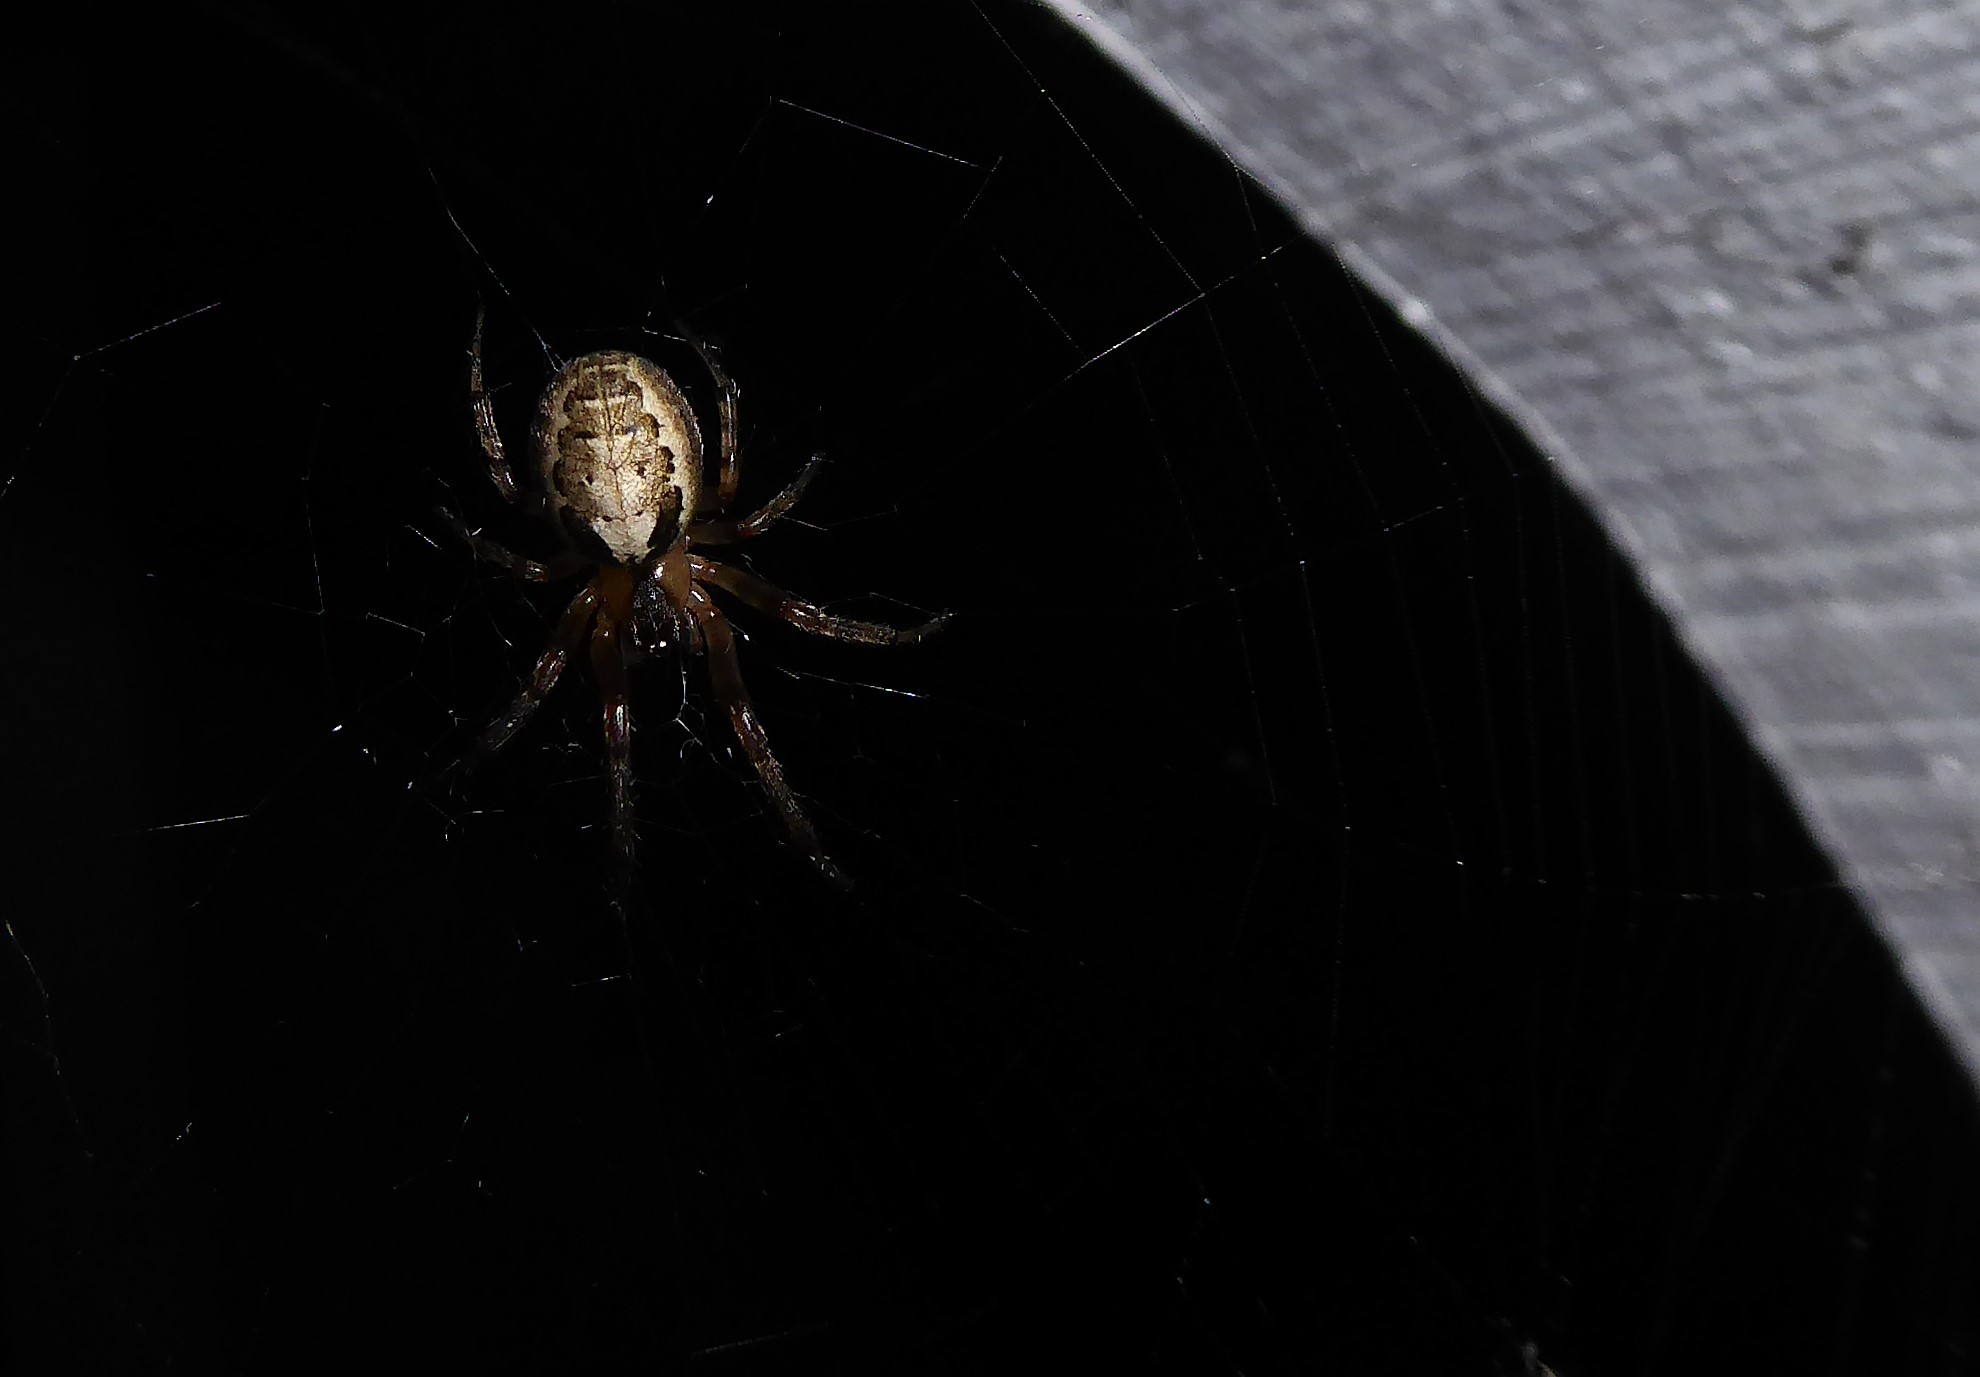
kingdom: Animalia
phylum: Arthropoda
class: Arachnida
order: Araneae
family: Araneidae
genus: Zygiella
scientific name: Zygiella x-notata
